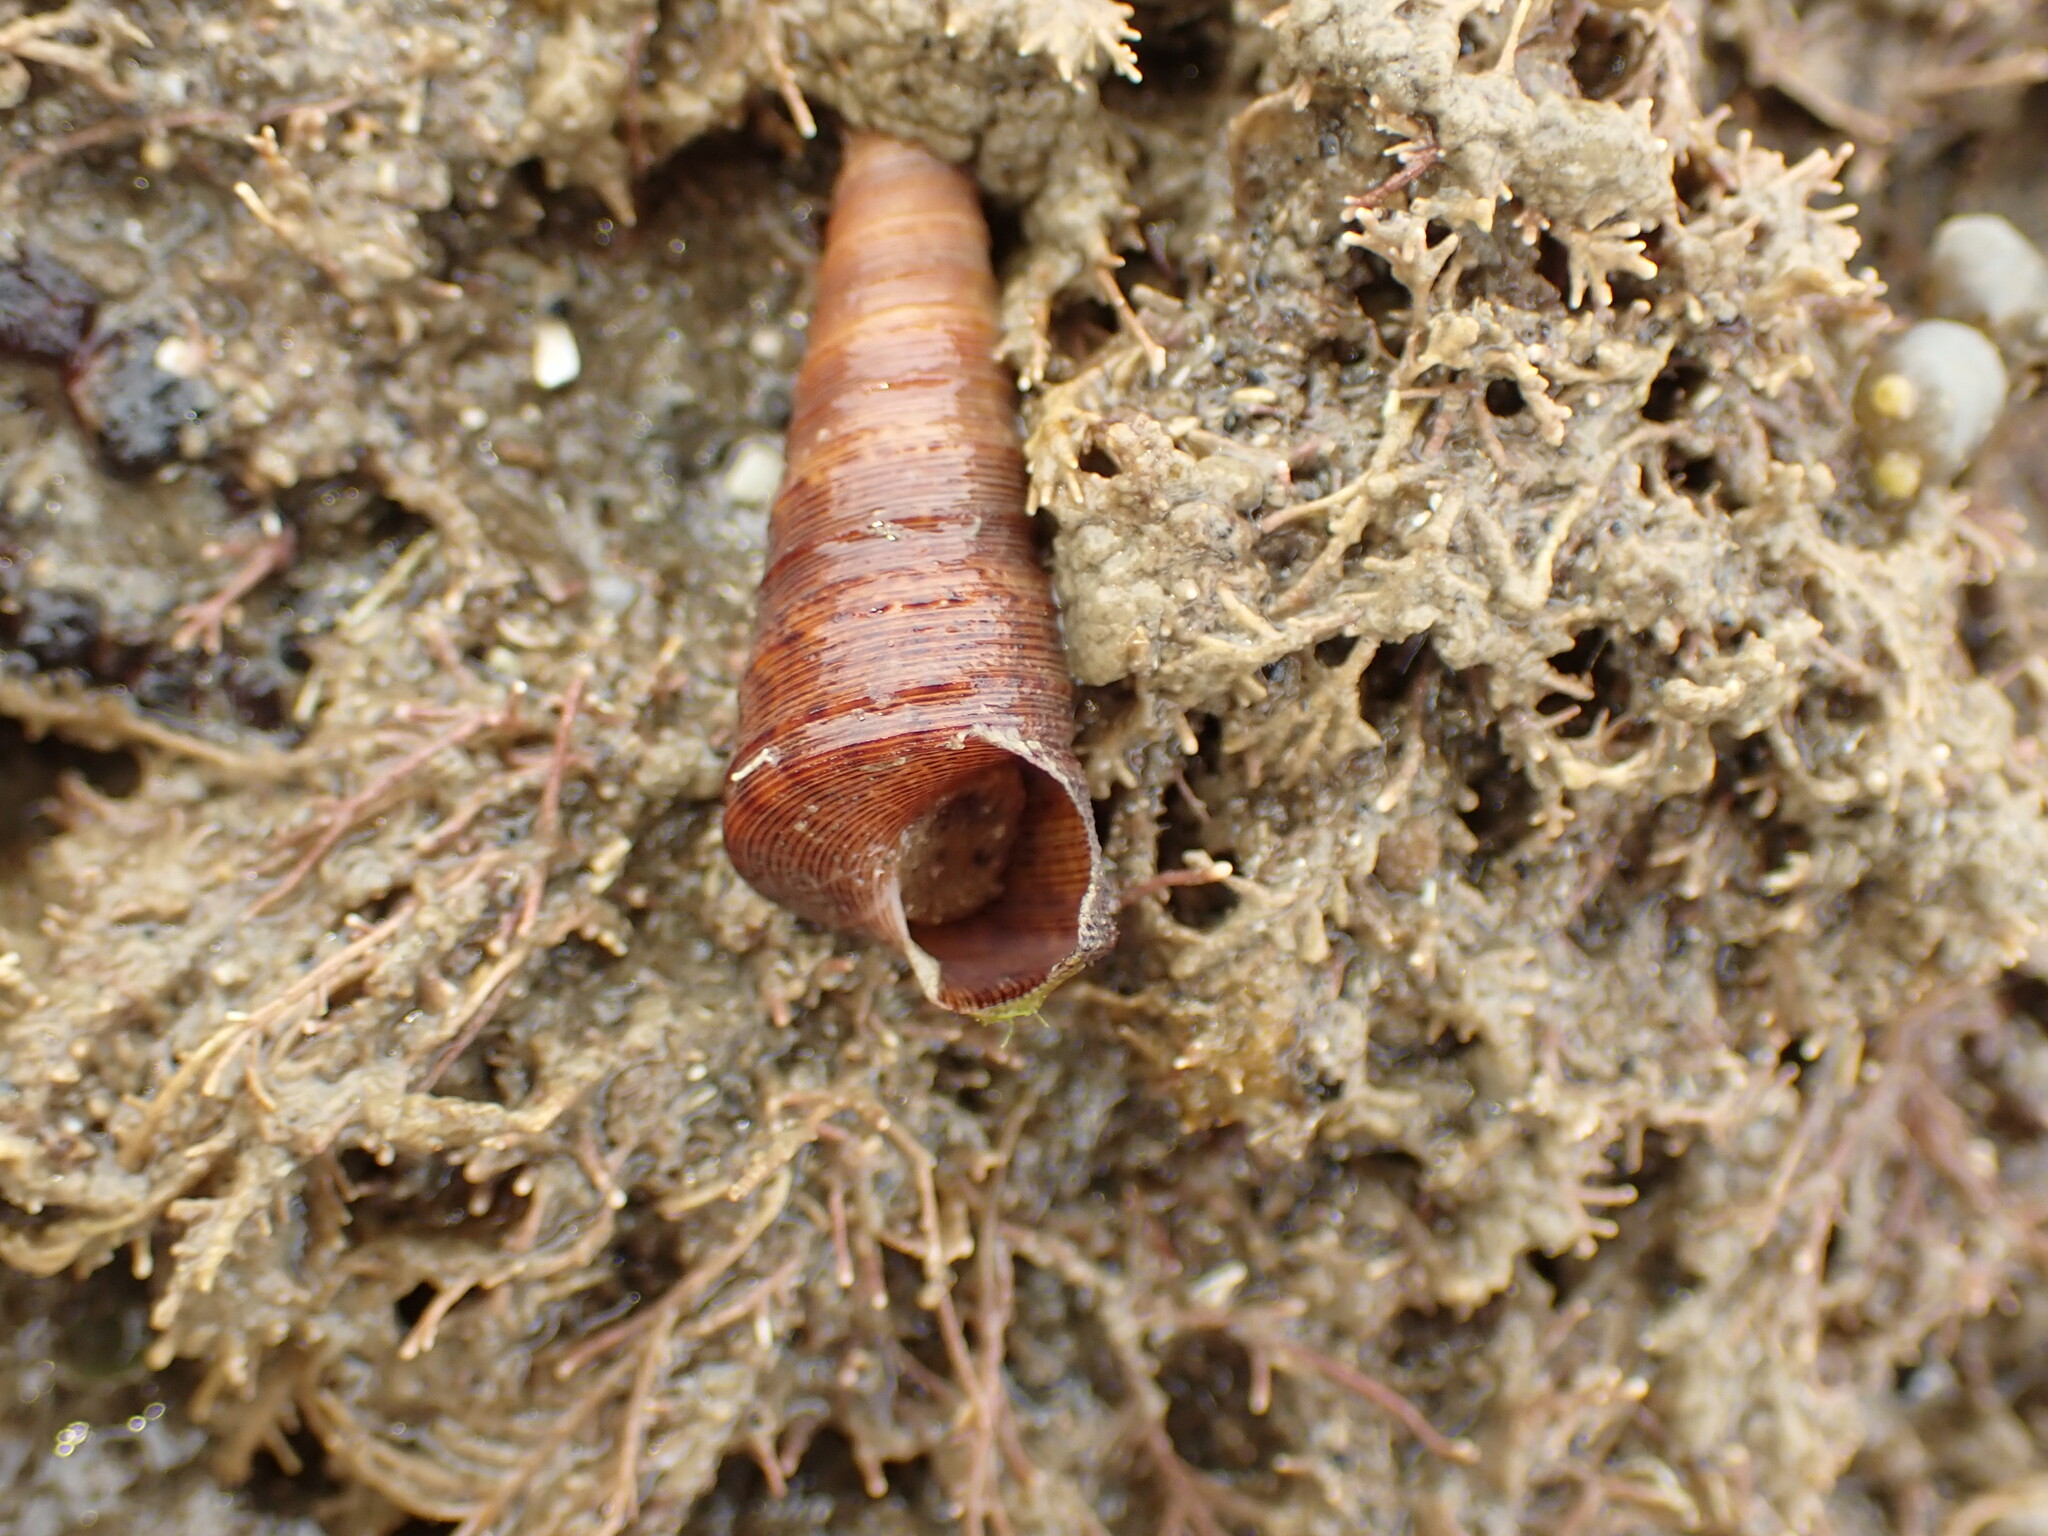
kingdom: Animalia
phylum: Mollusca
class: Gastropoda
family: Turritellidae
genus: Maoricolpus
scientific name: Maoricolpus roseus
